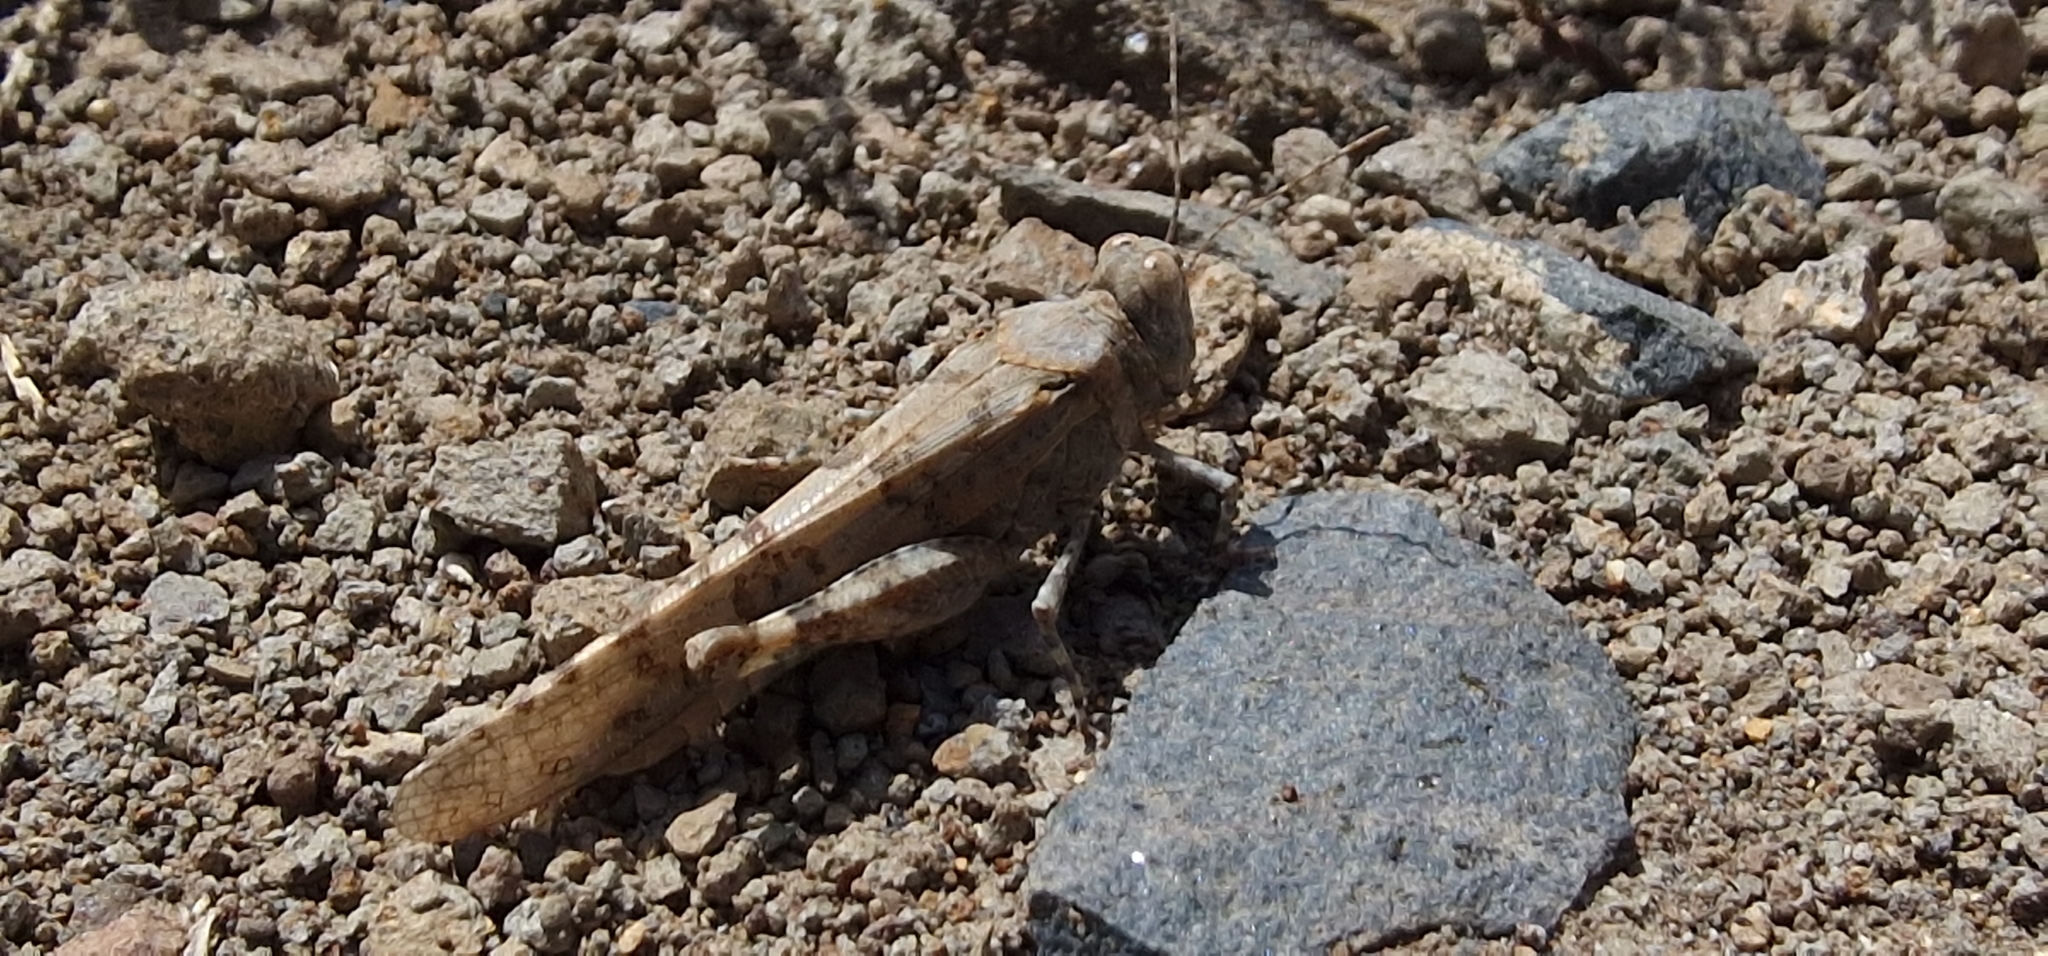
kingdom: Animalia
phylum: Arthropoda
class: Insecta
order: Orthoptera
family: Acrididae
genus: Sphingonotus
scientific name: Sphingonotus rubescens
